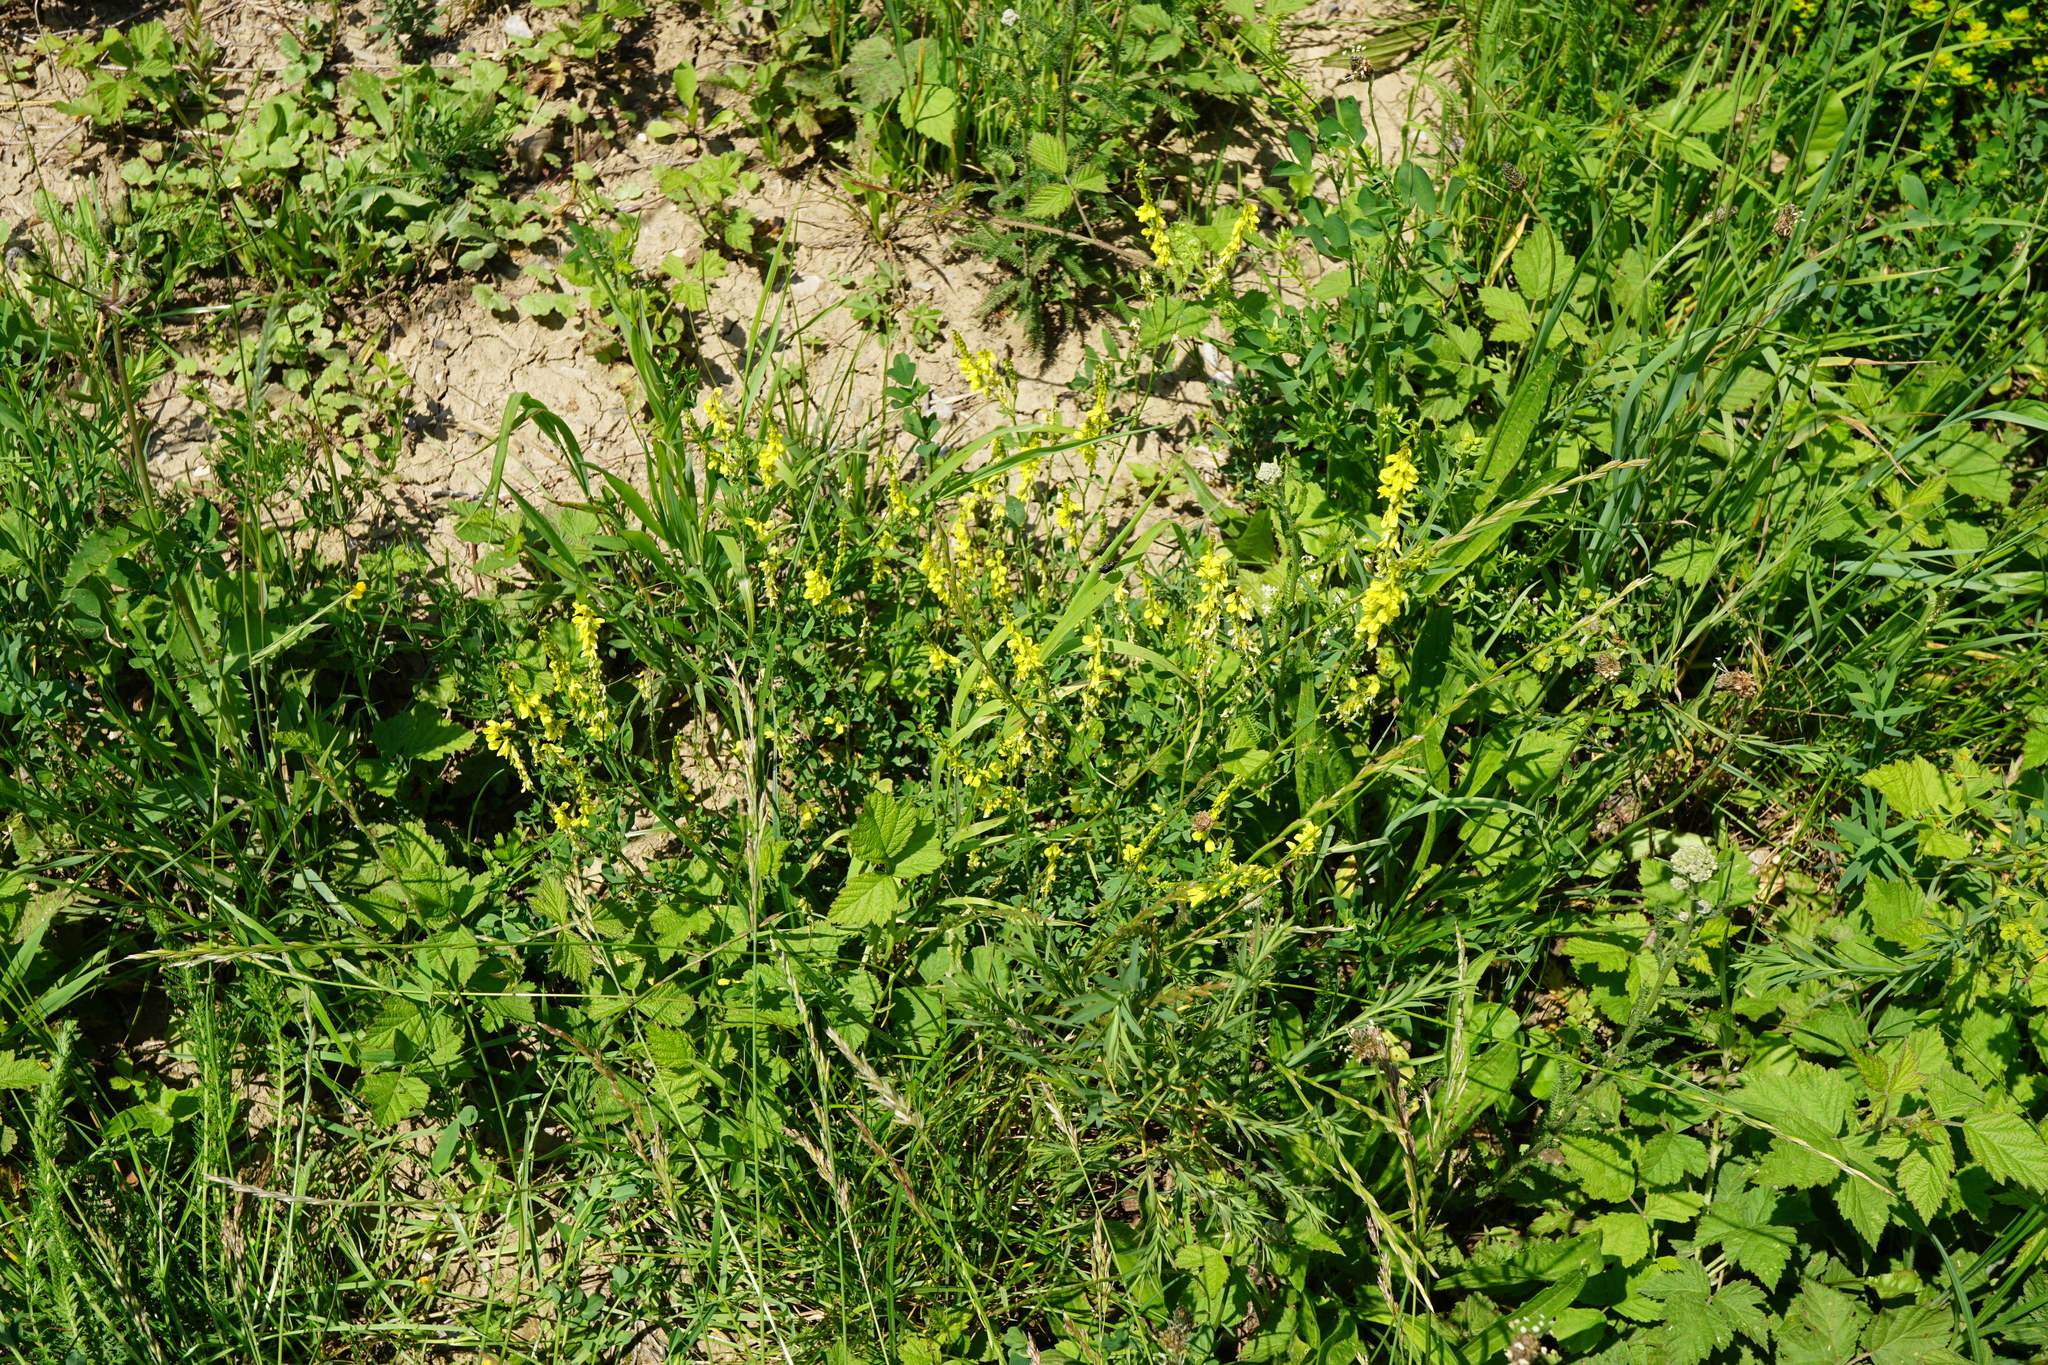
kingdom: Plantae
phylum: Tracheophyta
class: Magnoliopsida
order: Fabales
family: Fabaceae
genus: Melilotus
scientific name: Melilotus officinalis
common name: Sweetclover
